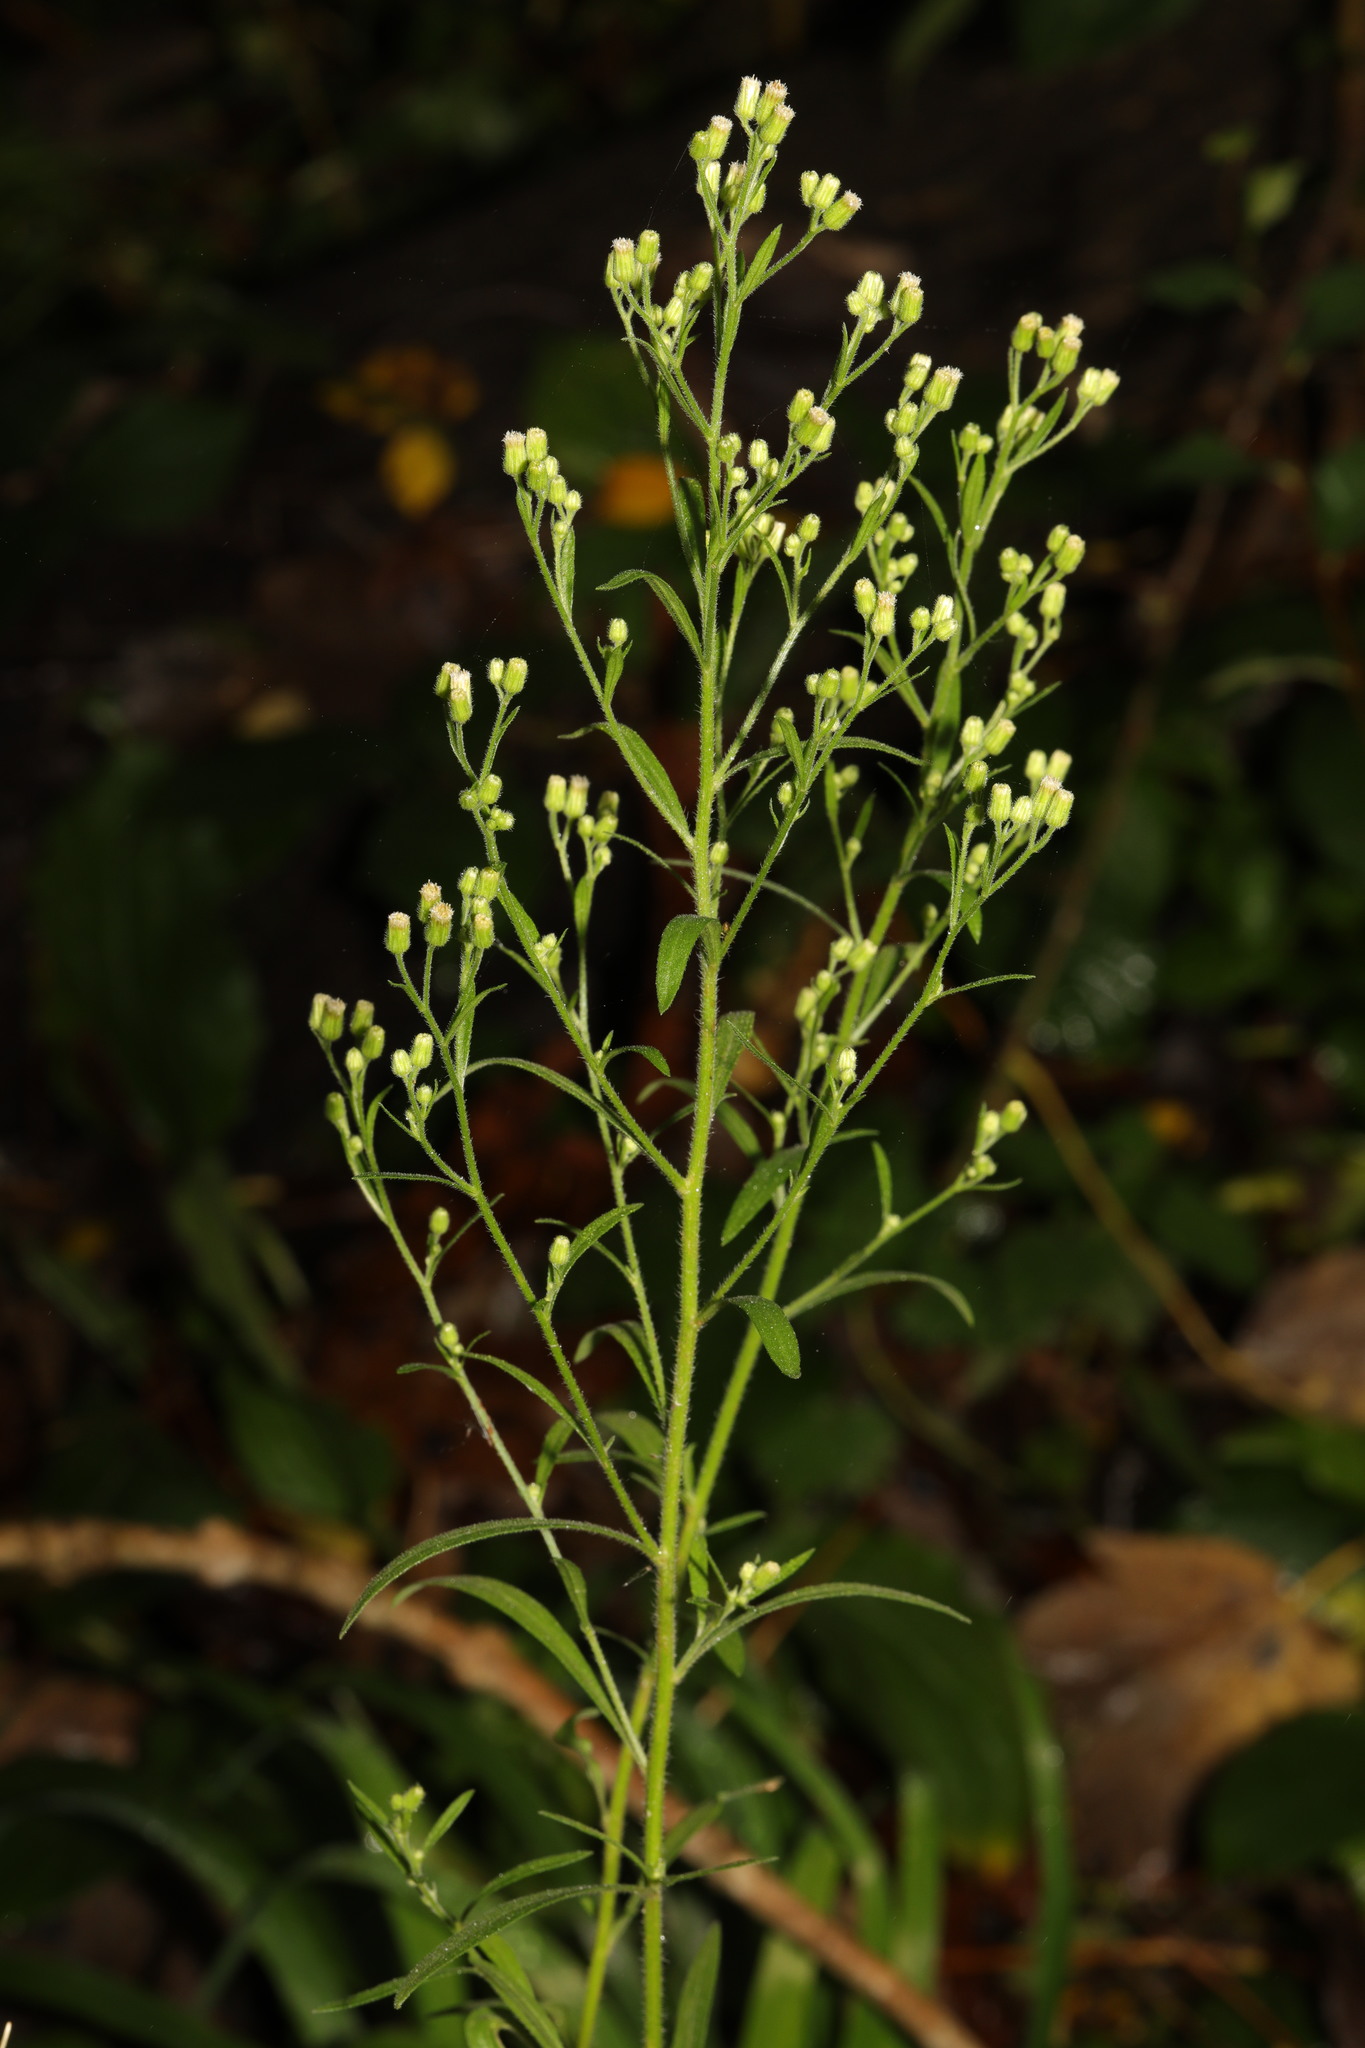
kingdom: Plantae
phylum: Tracheophyta
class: Magnoliopsida
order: Asterales
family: Asteraceae
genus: Erigeron
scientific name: Erigeron canadensis
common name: Canadian fleabane
